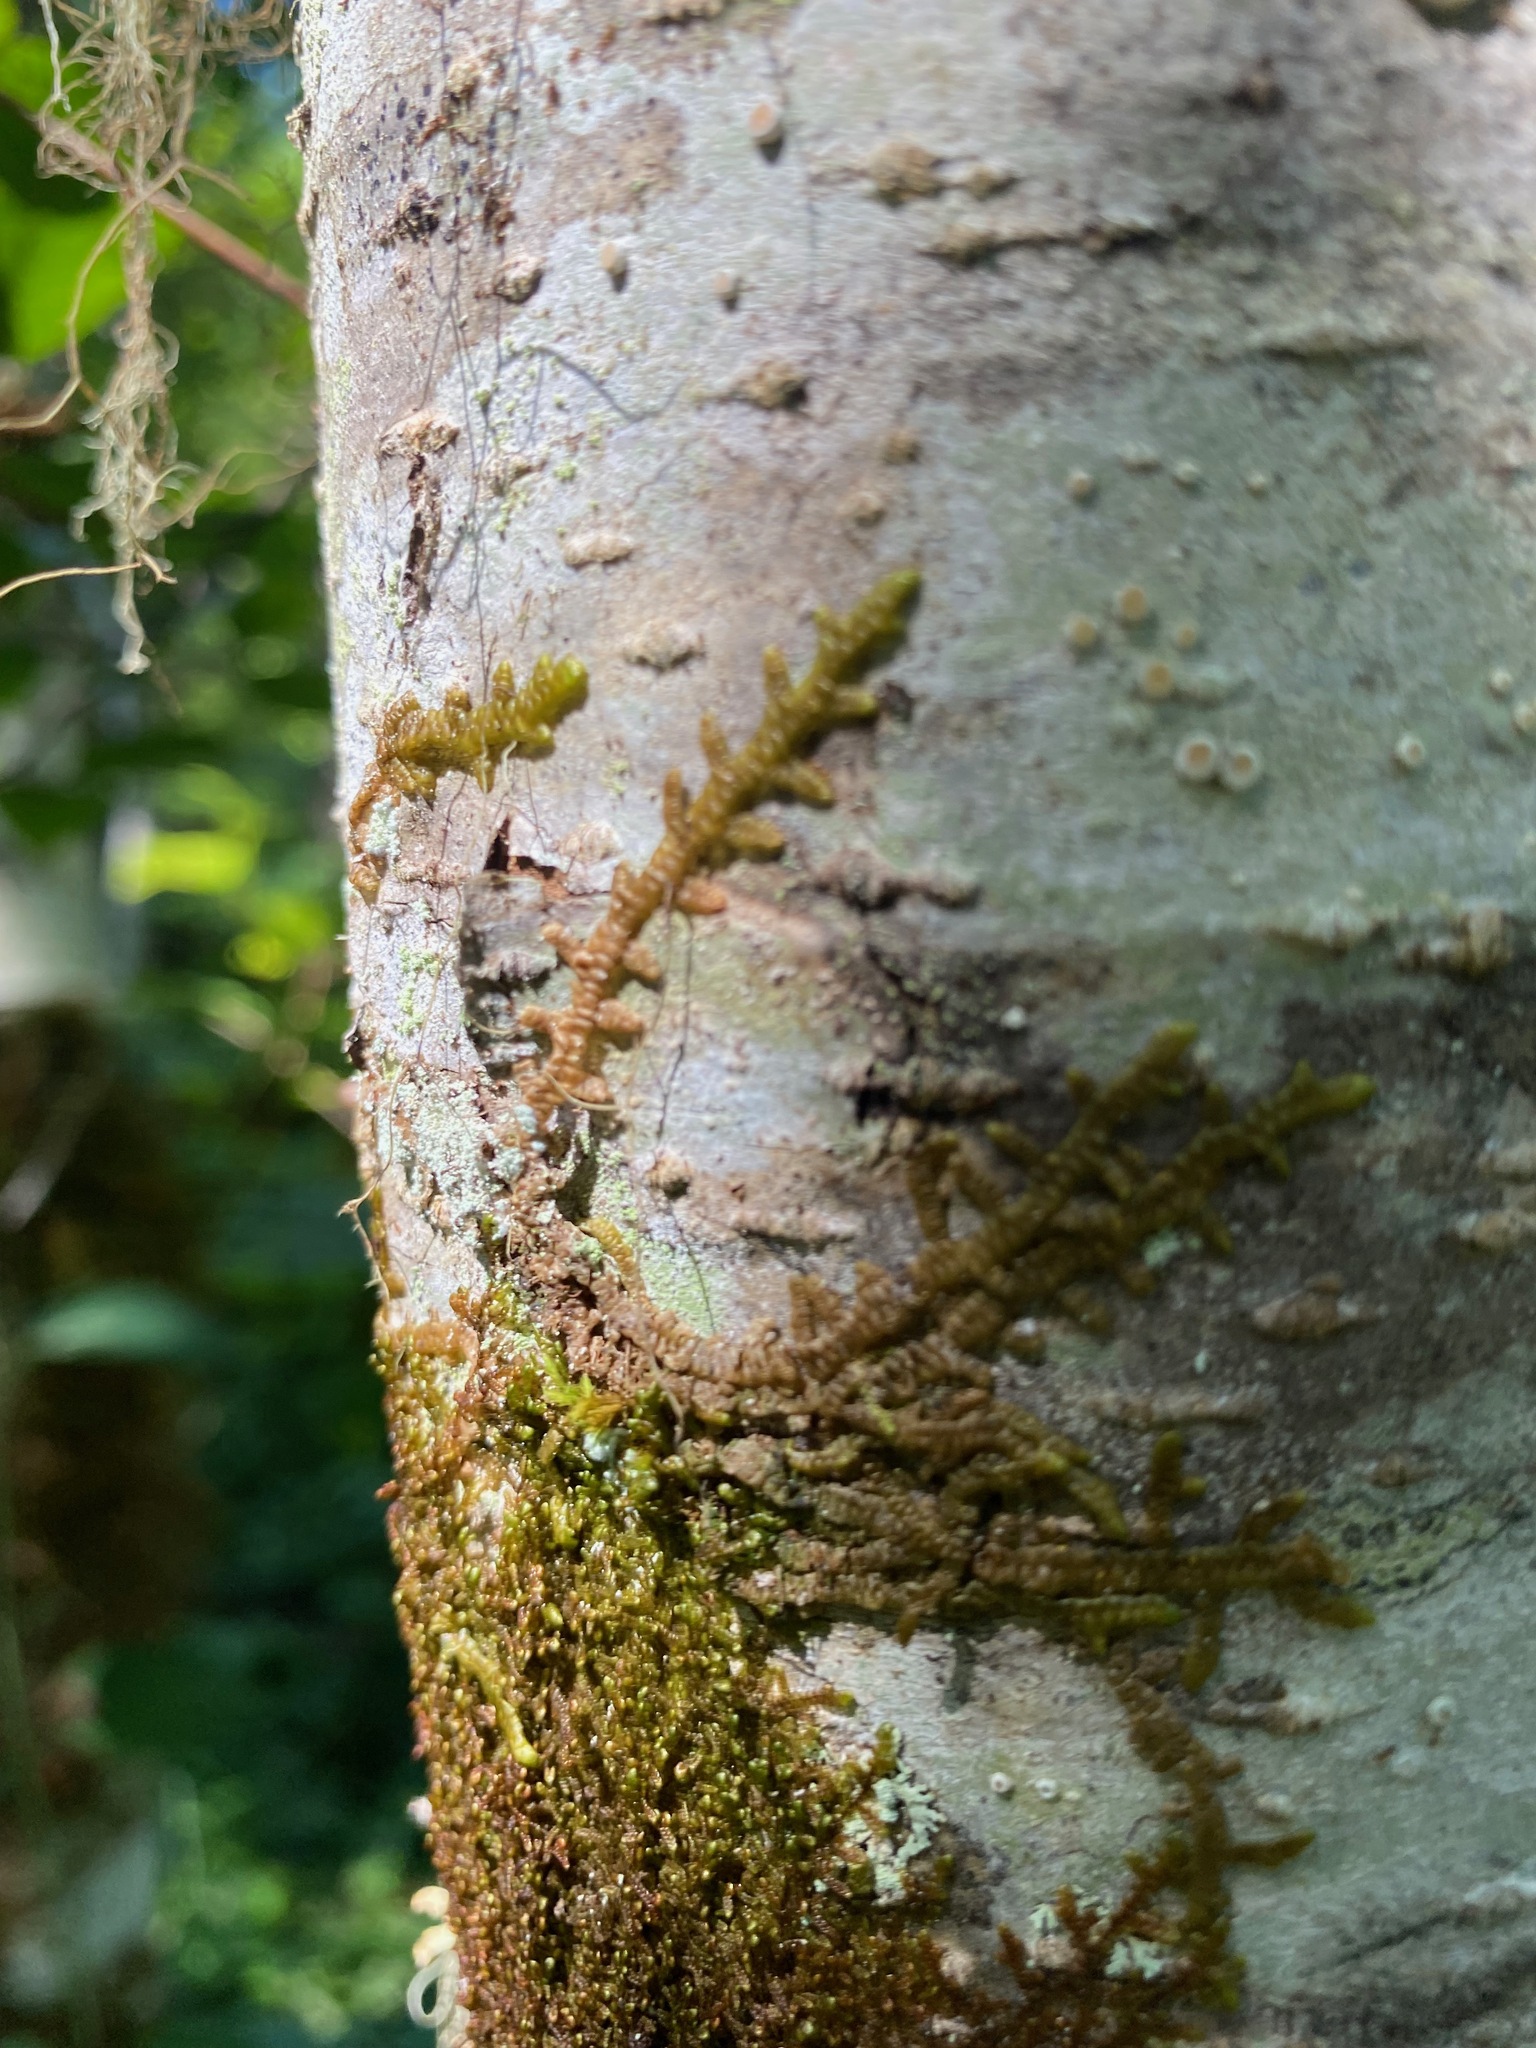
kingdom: Plantae
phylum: Marchantiophyta
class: Jungermanniopsida
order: Porellales
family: Porellaceae
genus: Porella
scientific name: Porella navicularis
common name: Tree ruffle liverwort
